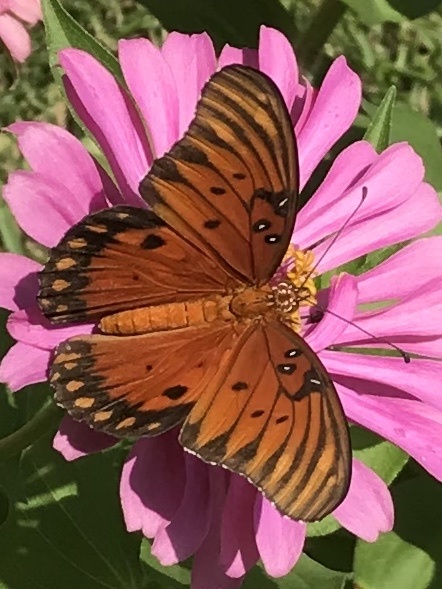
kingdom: Animalia
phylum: Arthropoda
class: Insecta
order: Lepidoptera
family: Nymphalidae
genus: Dione
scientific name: Dione vanillae
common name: Gulf fritillary
